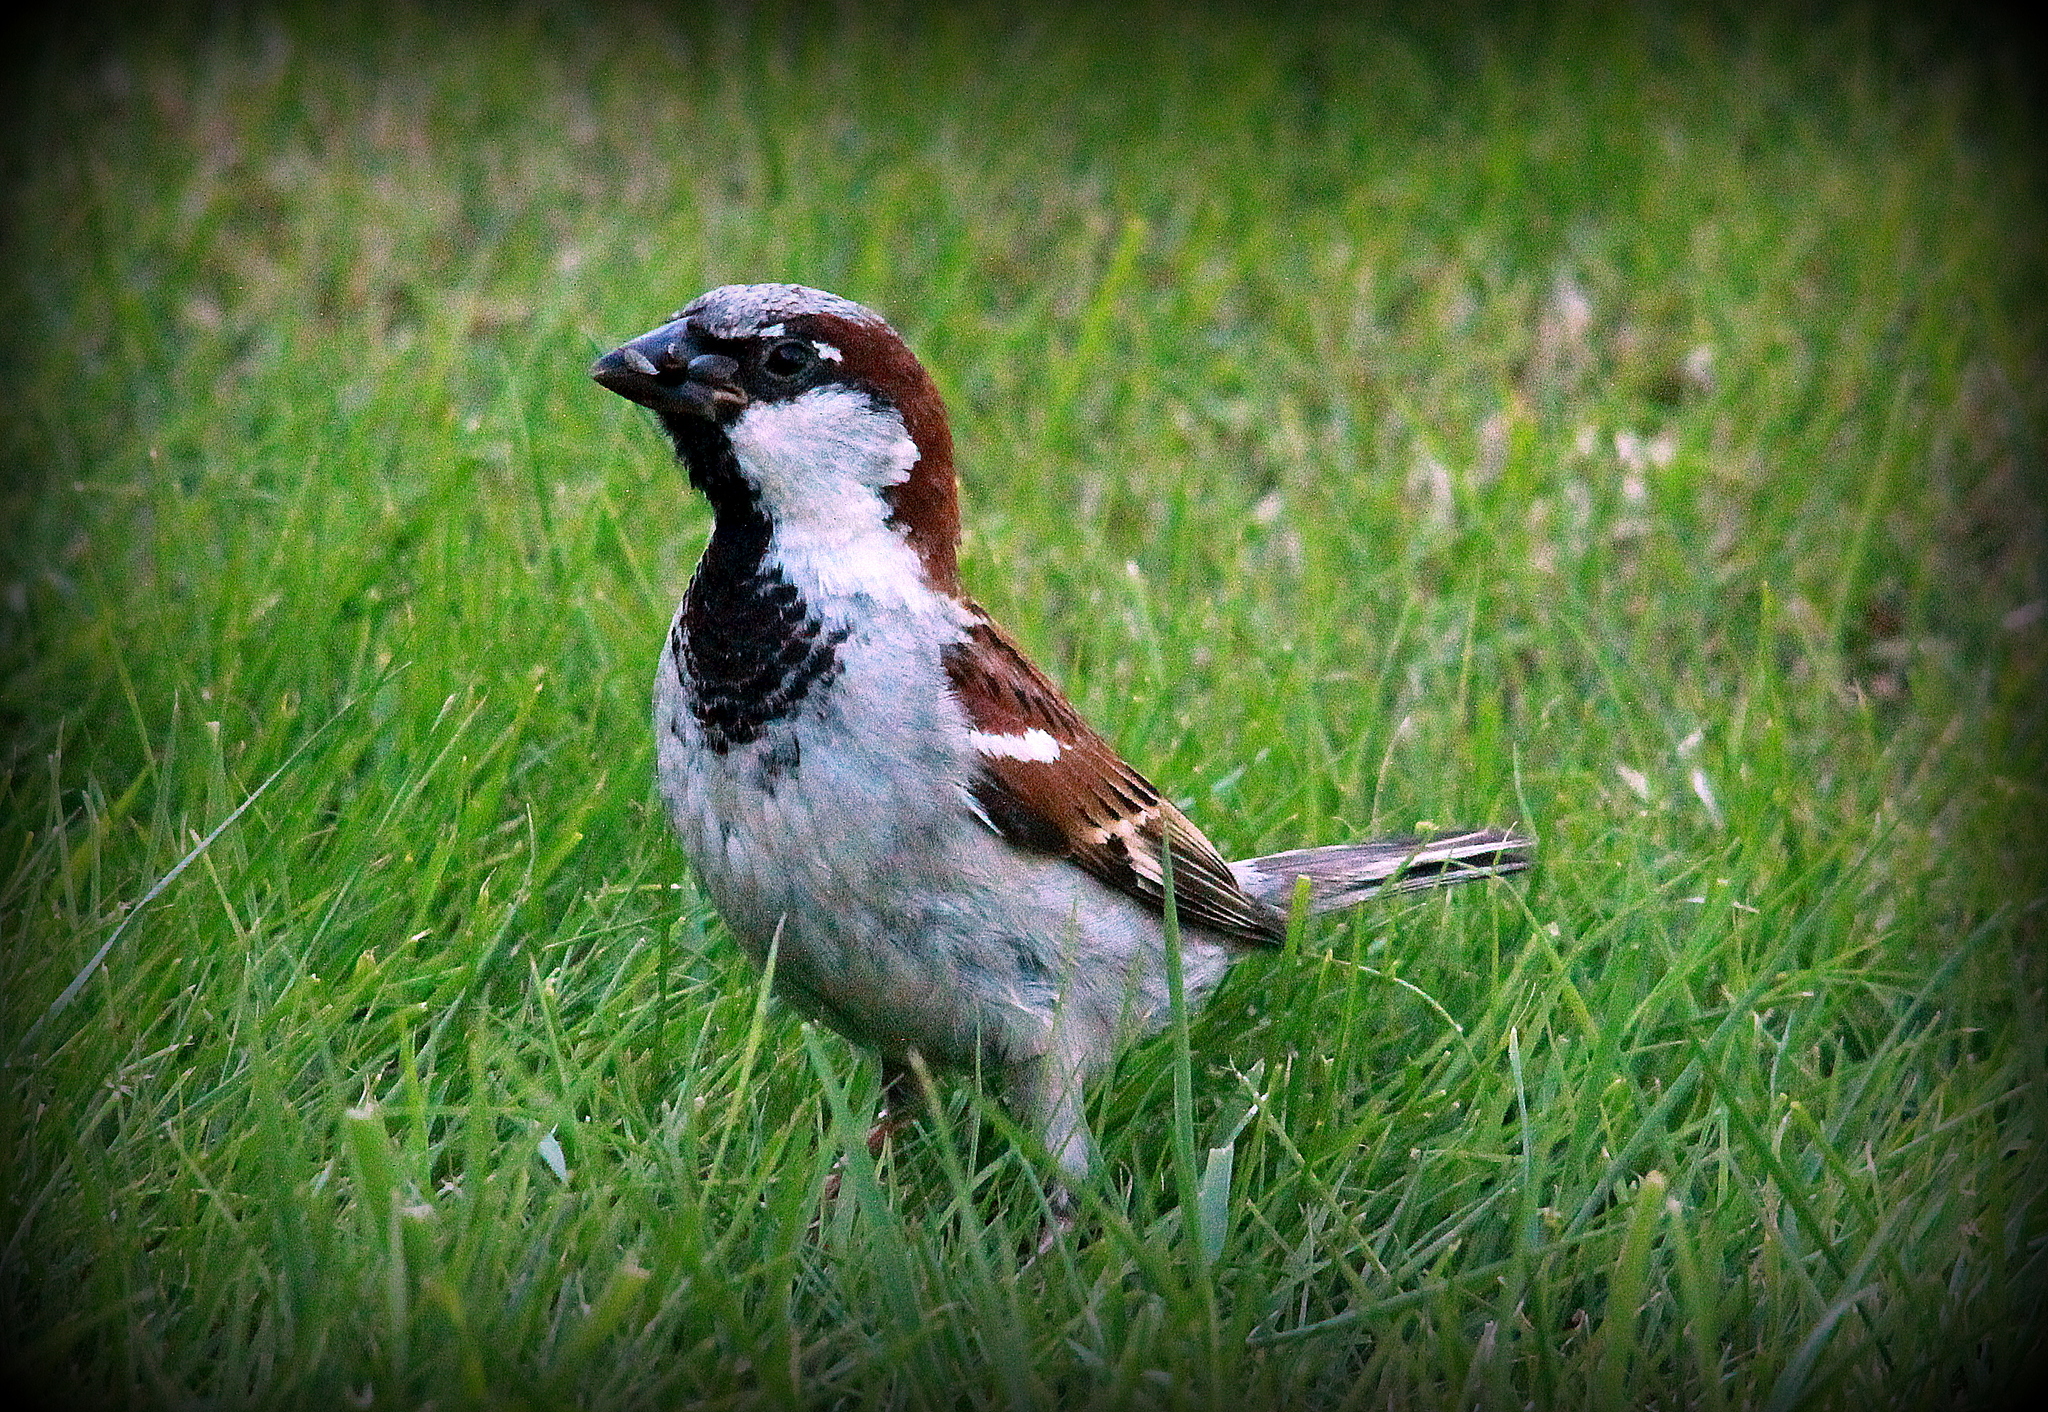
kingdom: Animalia
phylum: Chordata
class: Aves
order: Passeriformes
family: Passeridae
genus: Passer
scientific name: Passer domesticus
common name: House sparrow
